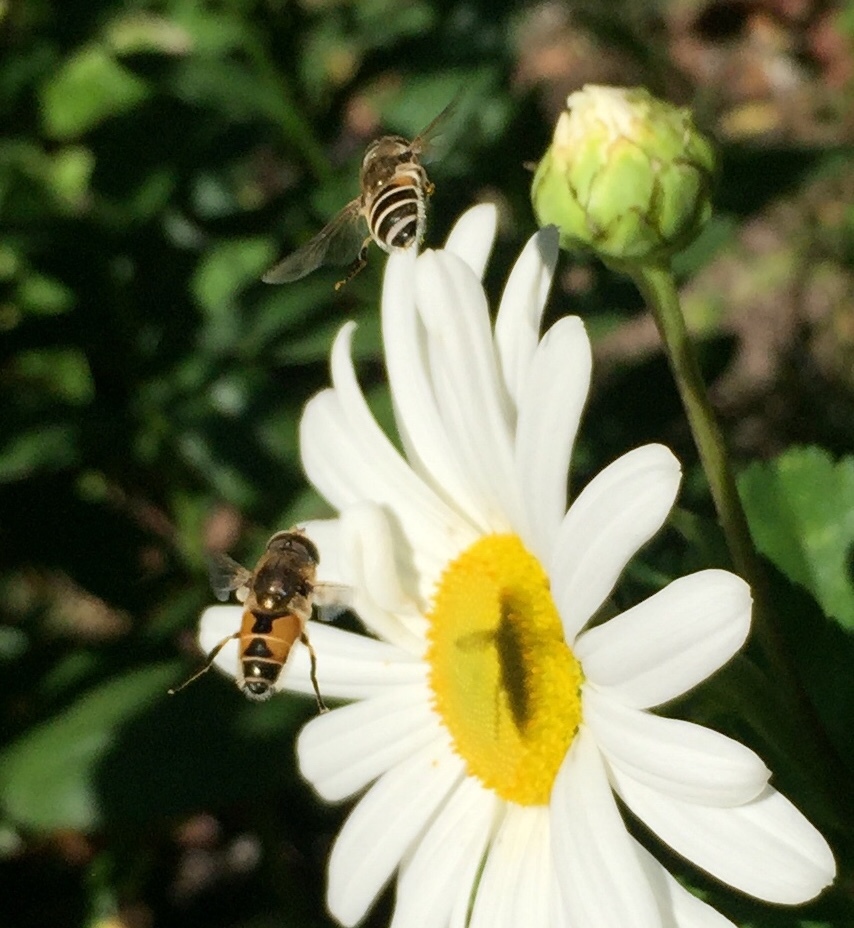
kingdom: Animalia
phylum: Arthropoda
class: Insecta
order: Diptera
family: Syrphidae
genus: Eristalis
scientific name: Eristalis arbustorum
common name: Hover fly
